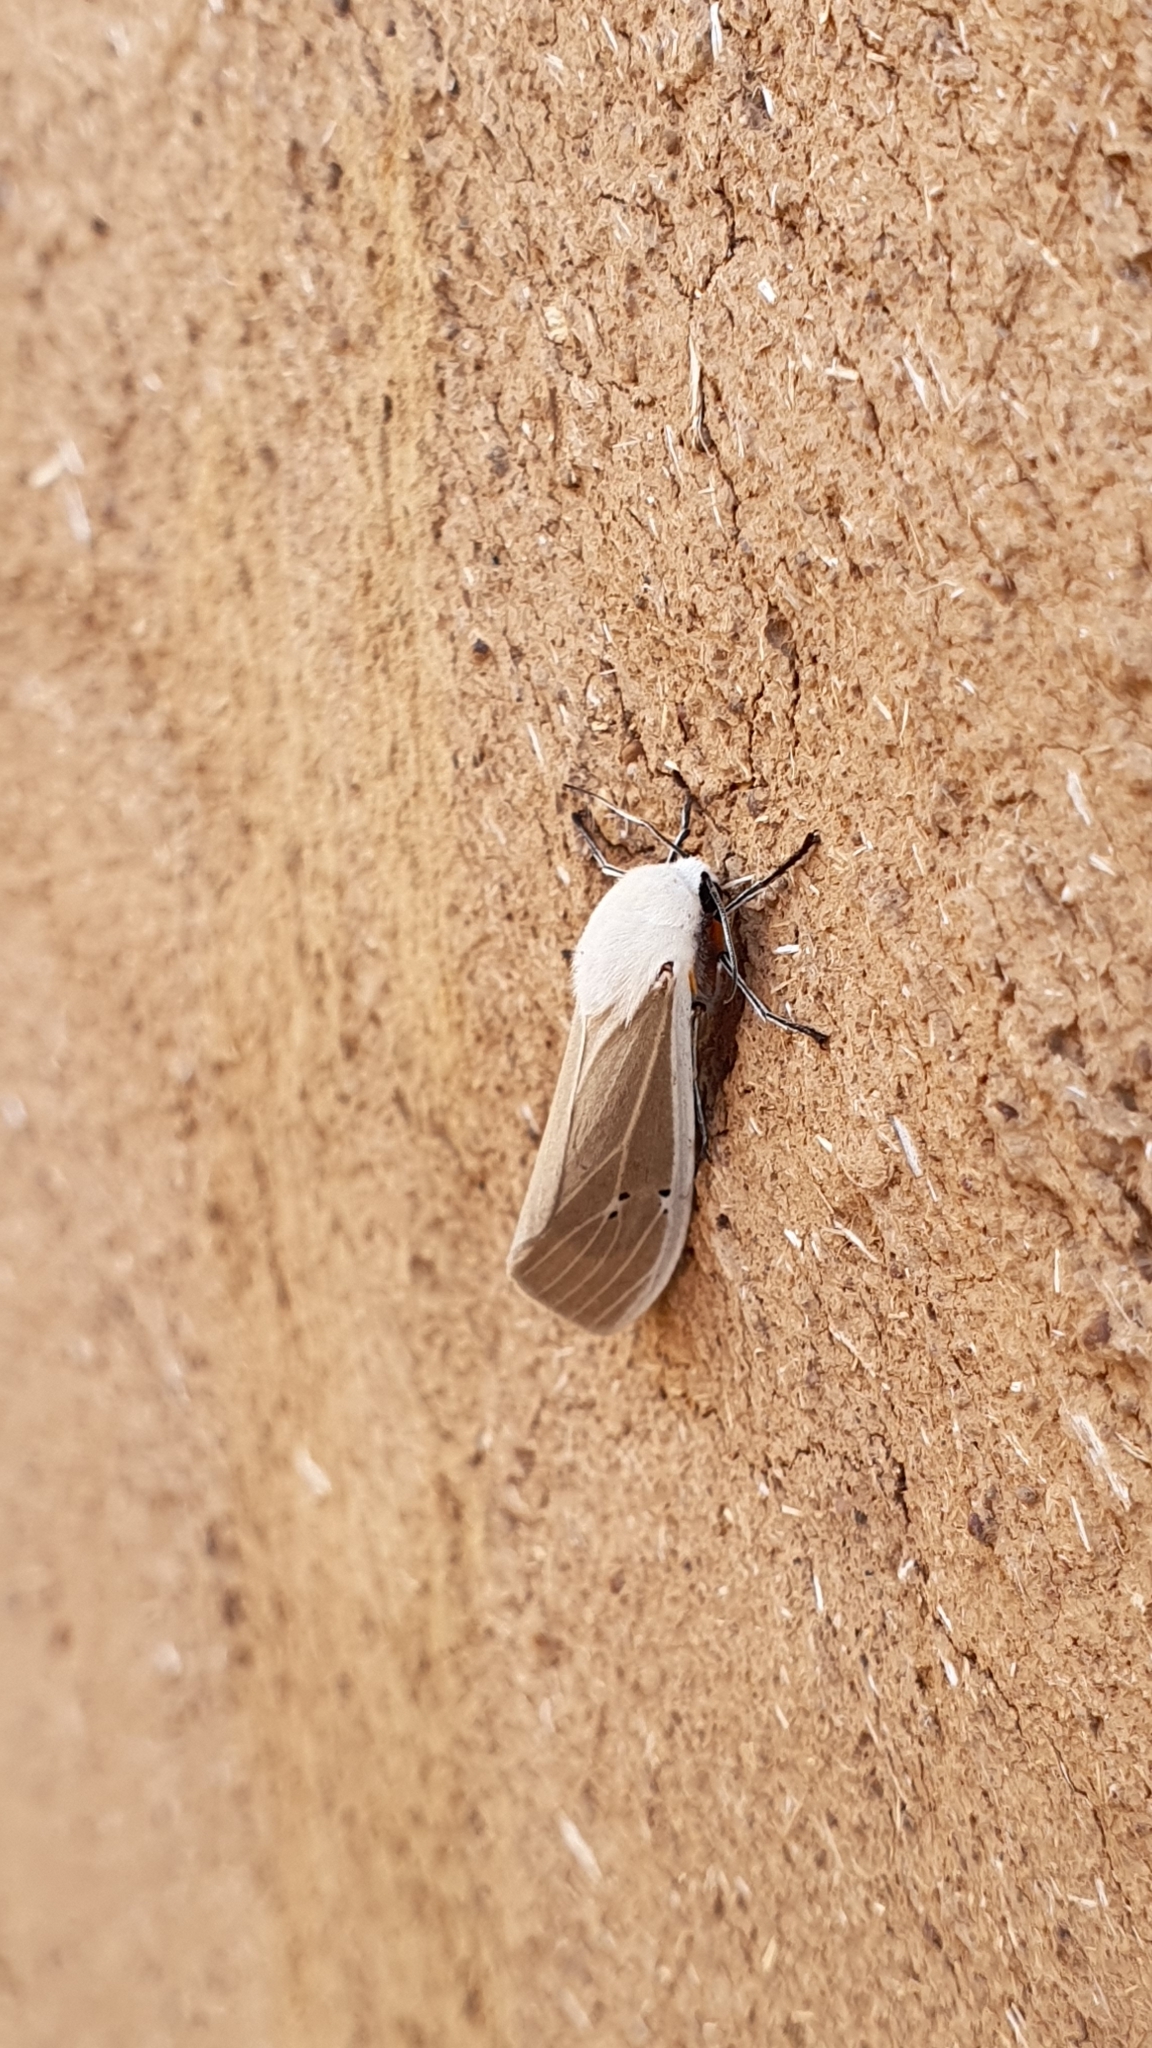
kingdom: Animalia
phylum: Arthropoda
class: Insecta
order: Lepidoptera
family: Erebidae
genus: Creatonotos
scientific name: Creatonotos transiens
